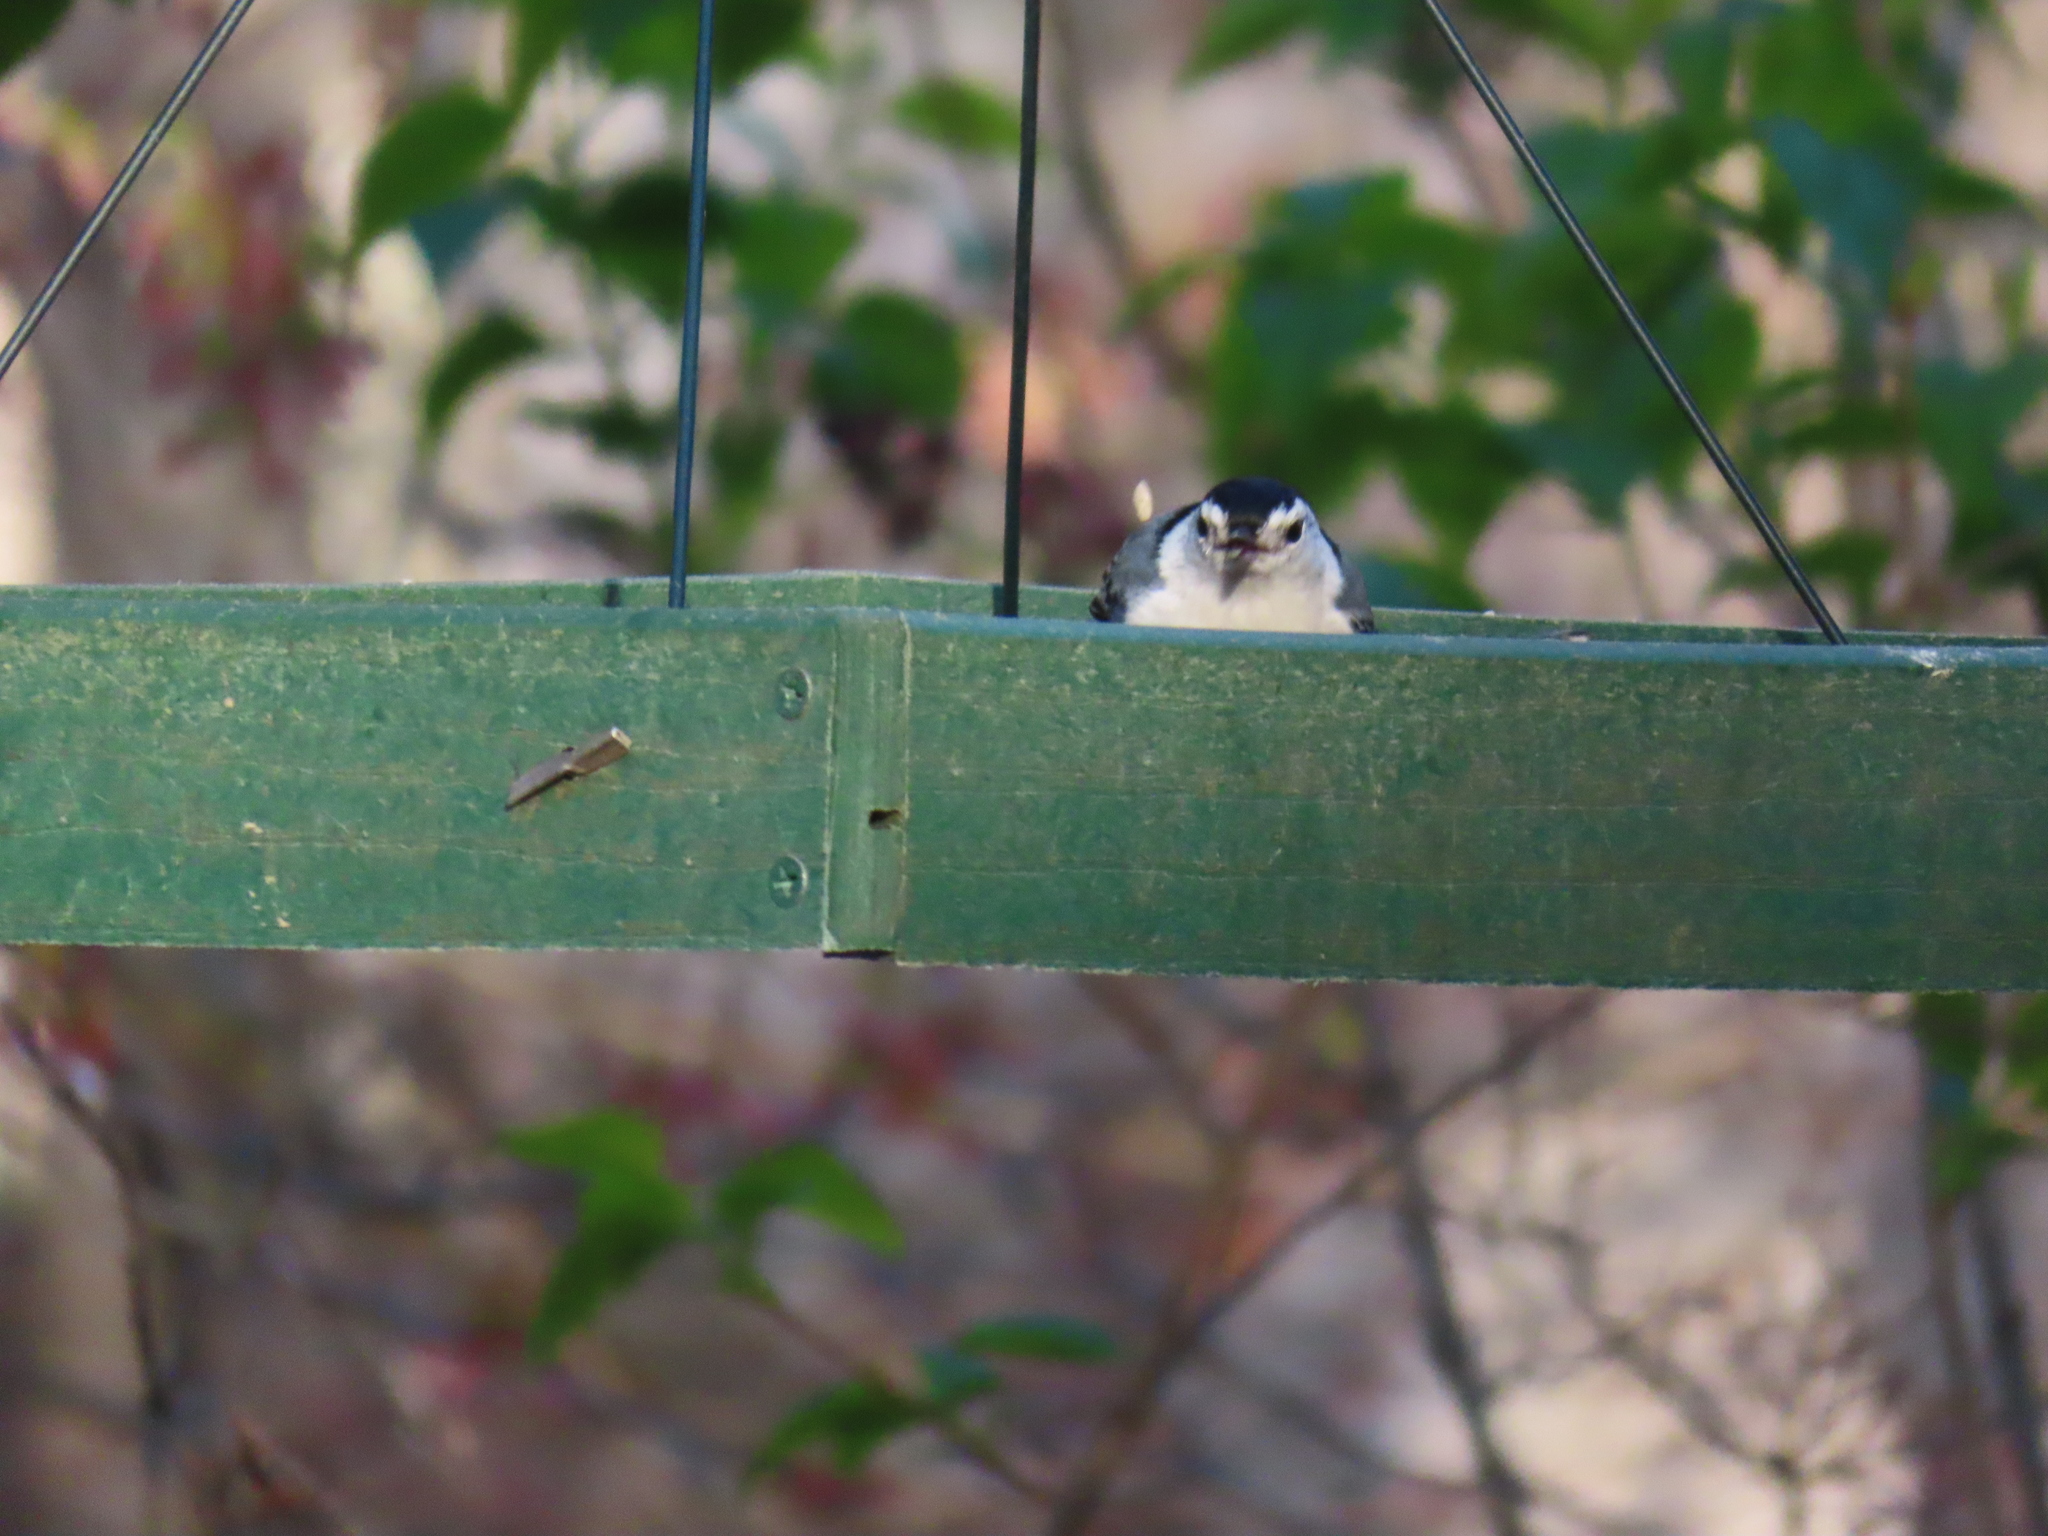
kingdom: Animalia
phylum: Chordata
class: Aves
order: Passeriformes
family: Sittidae
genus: Sitta
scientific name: Sitta carolinensis
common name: White-breasted nuthatch
